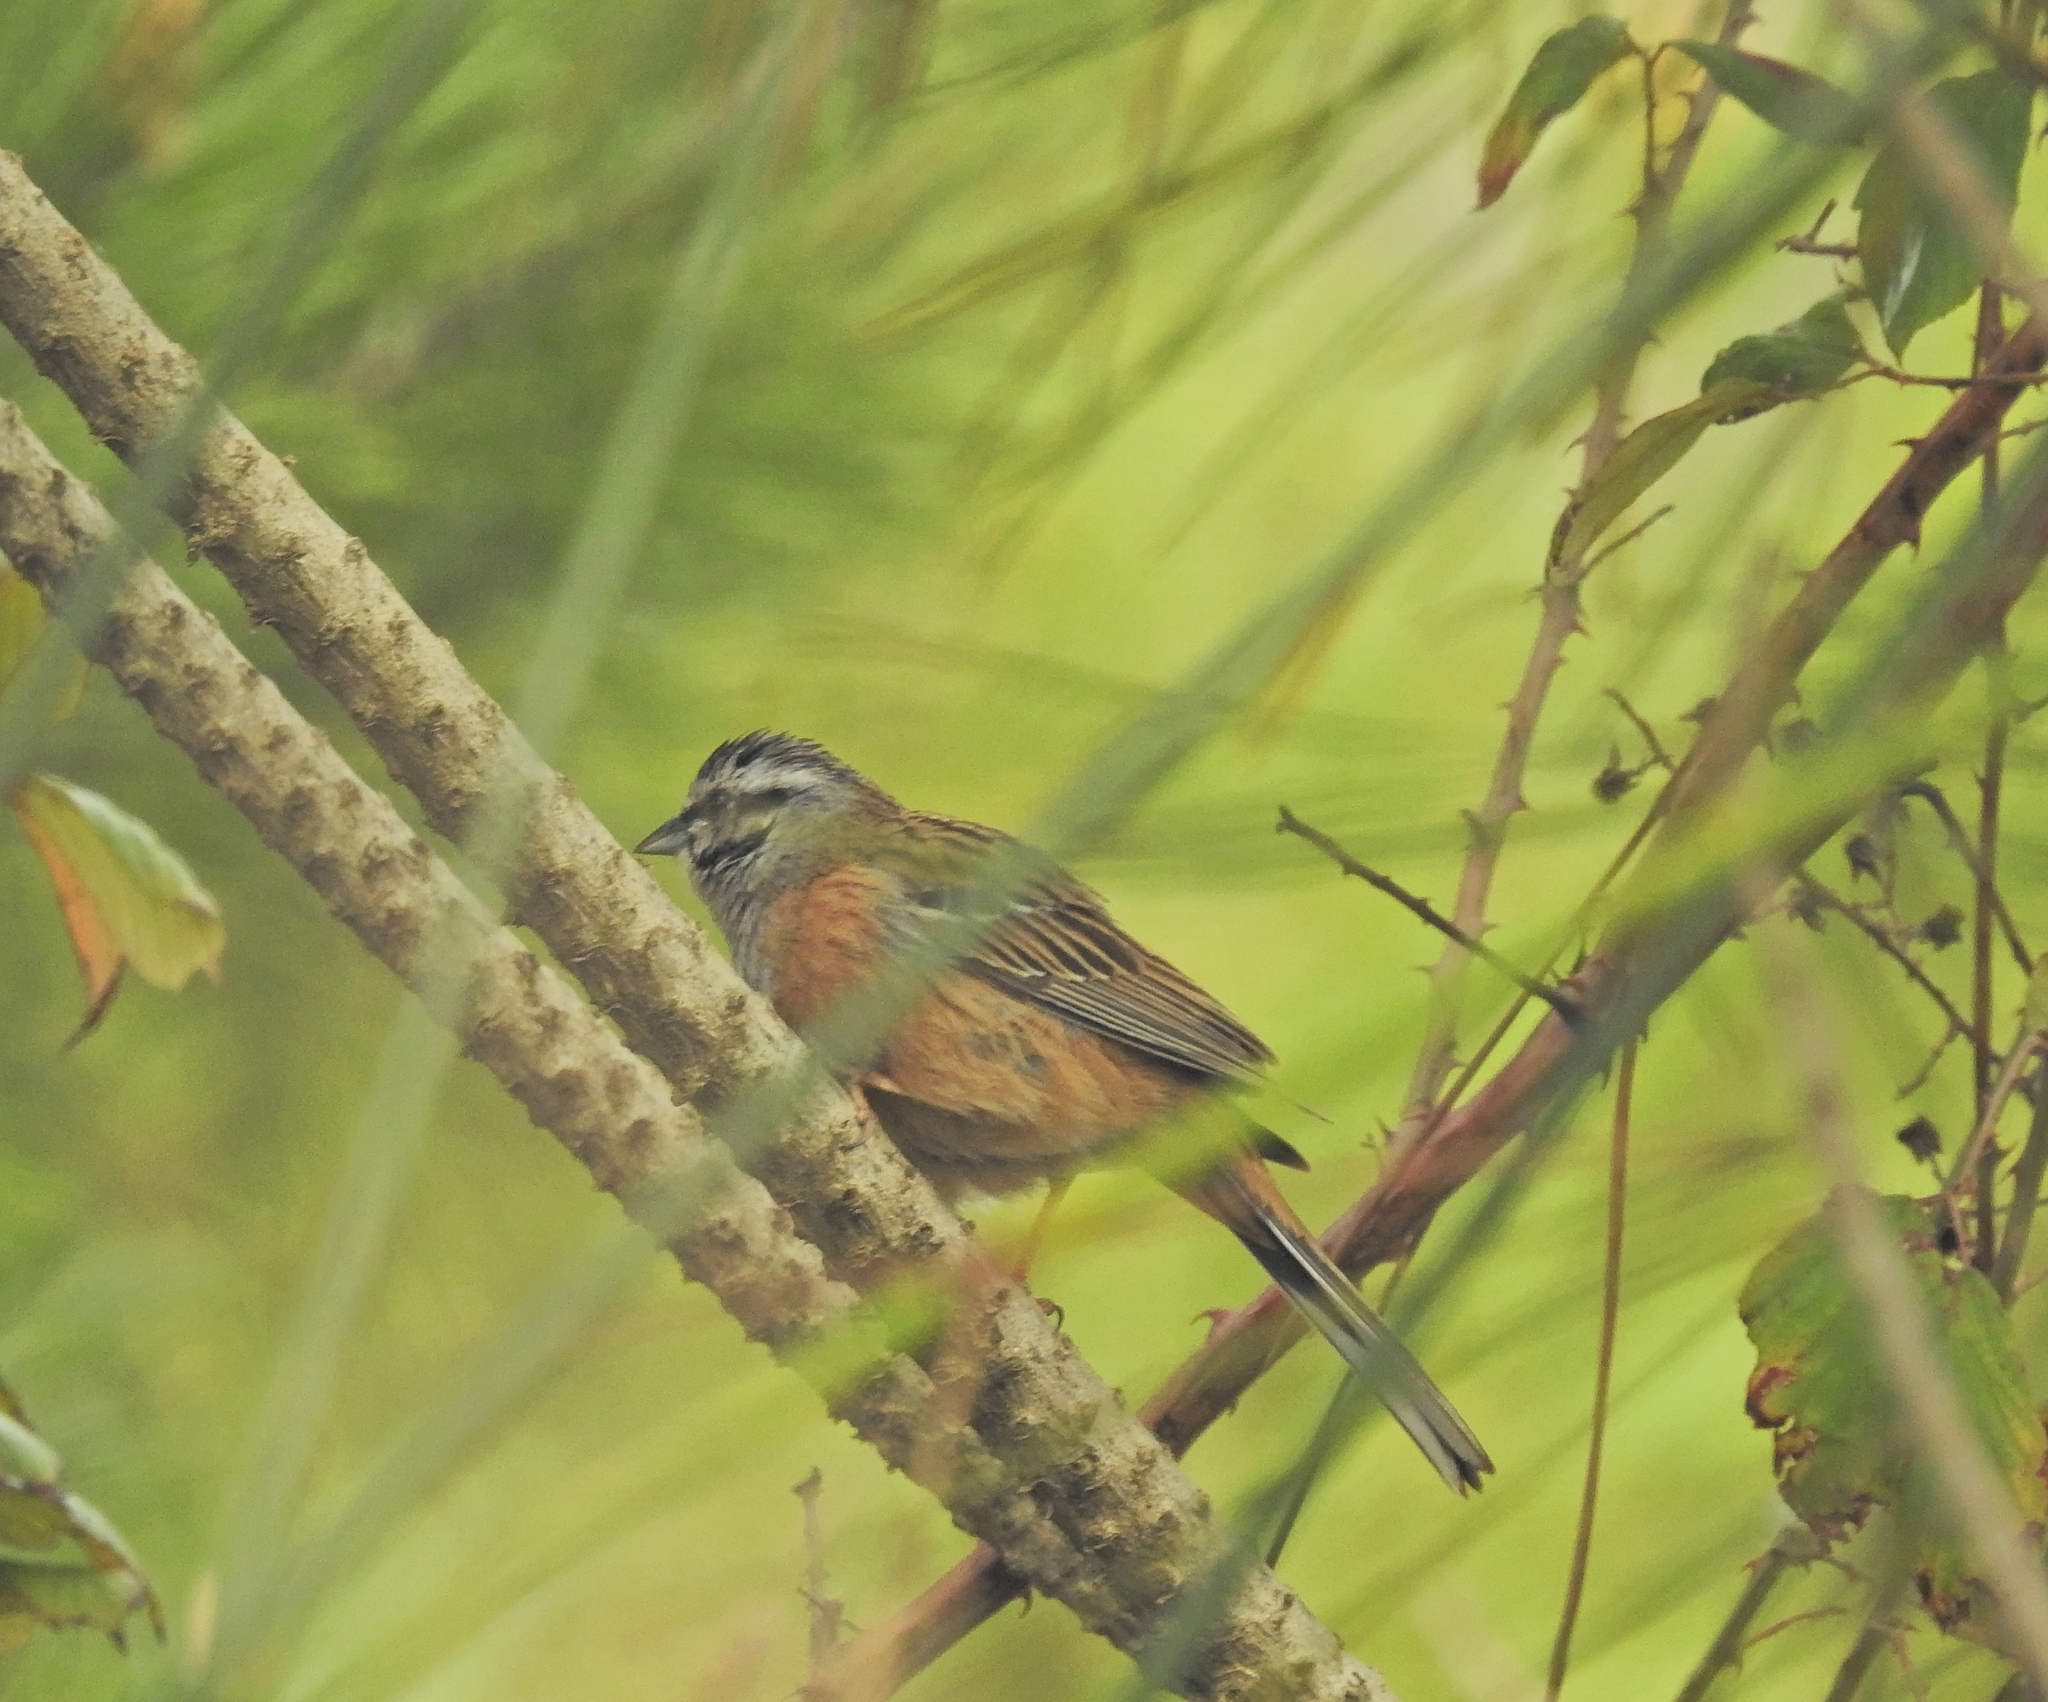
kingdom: Animalia
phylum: Chordata
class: Aves
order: Passeriformes
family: Emberizidae
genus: Emberiza
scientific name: Emberiza cia
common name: Rock bunting
